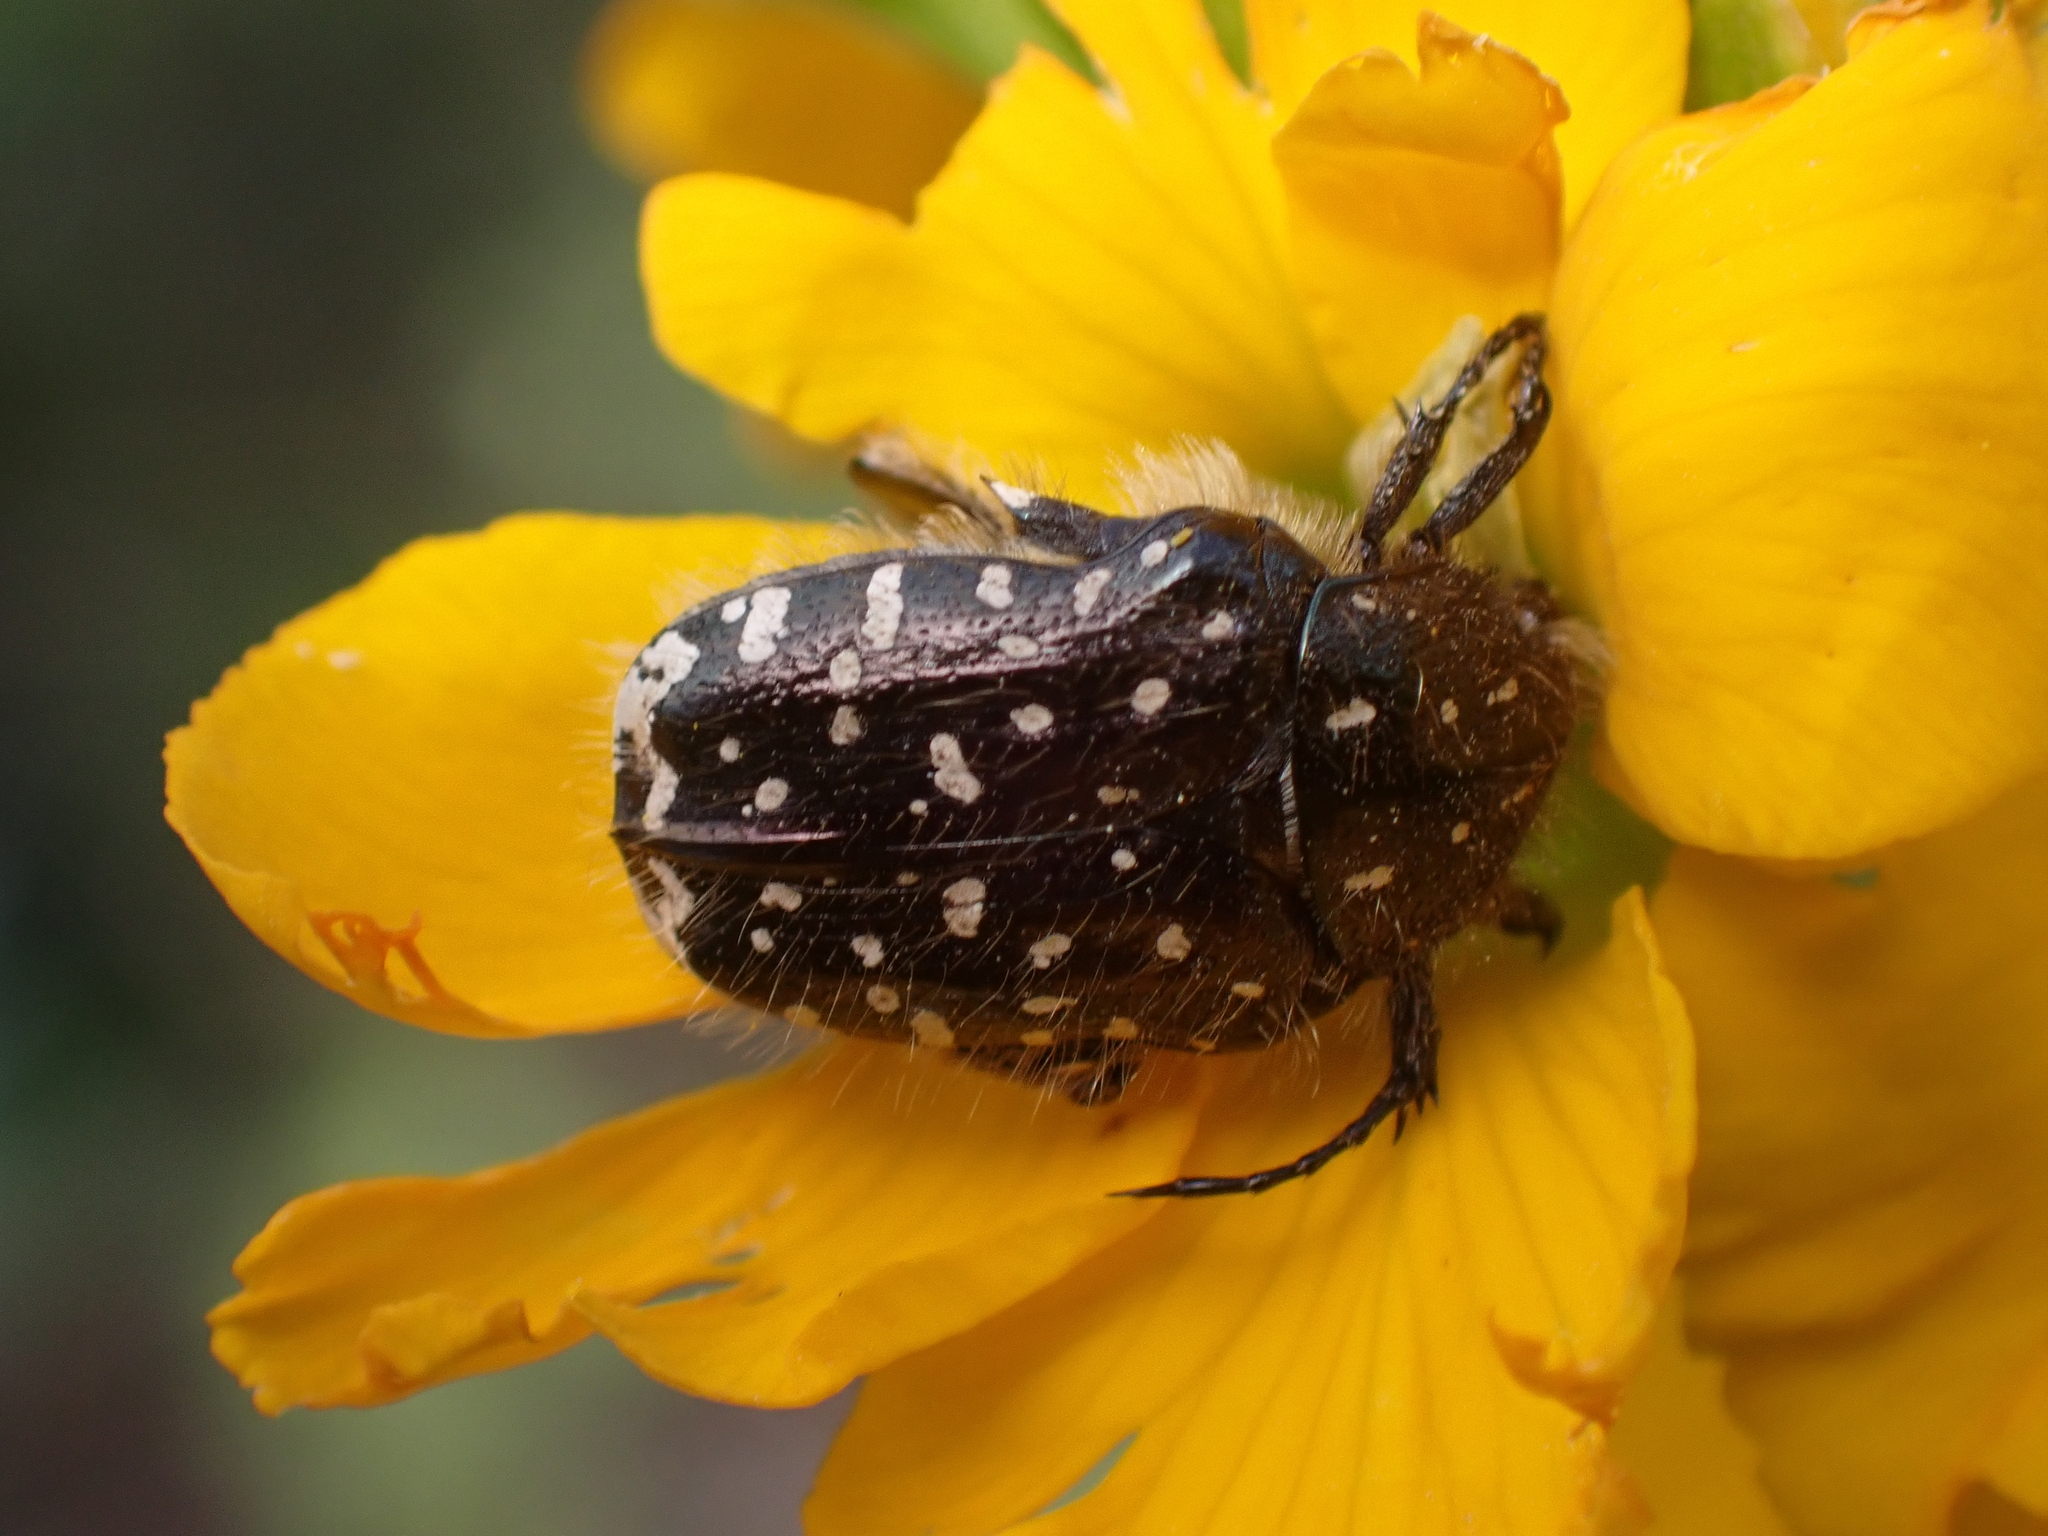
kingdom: Animalia
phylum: Arthropoda
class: Insecta
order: Coleoptera
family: Scarabaeidae
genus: Oxythyrea
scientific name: Oxythyrea funesta
